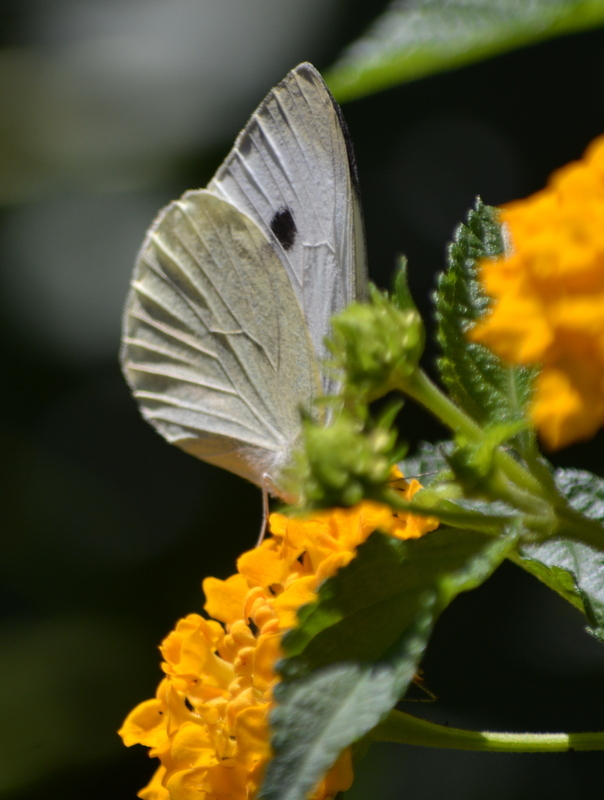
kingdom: Animalia
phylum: Arthropoda
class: Insecta
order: Lepidoptera
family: Pieridae
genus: Pieris
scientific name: Pieris brassicae
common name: Large white
